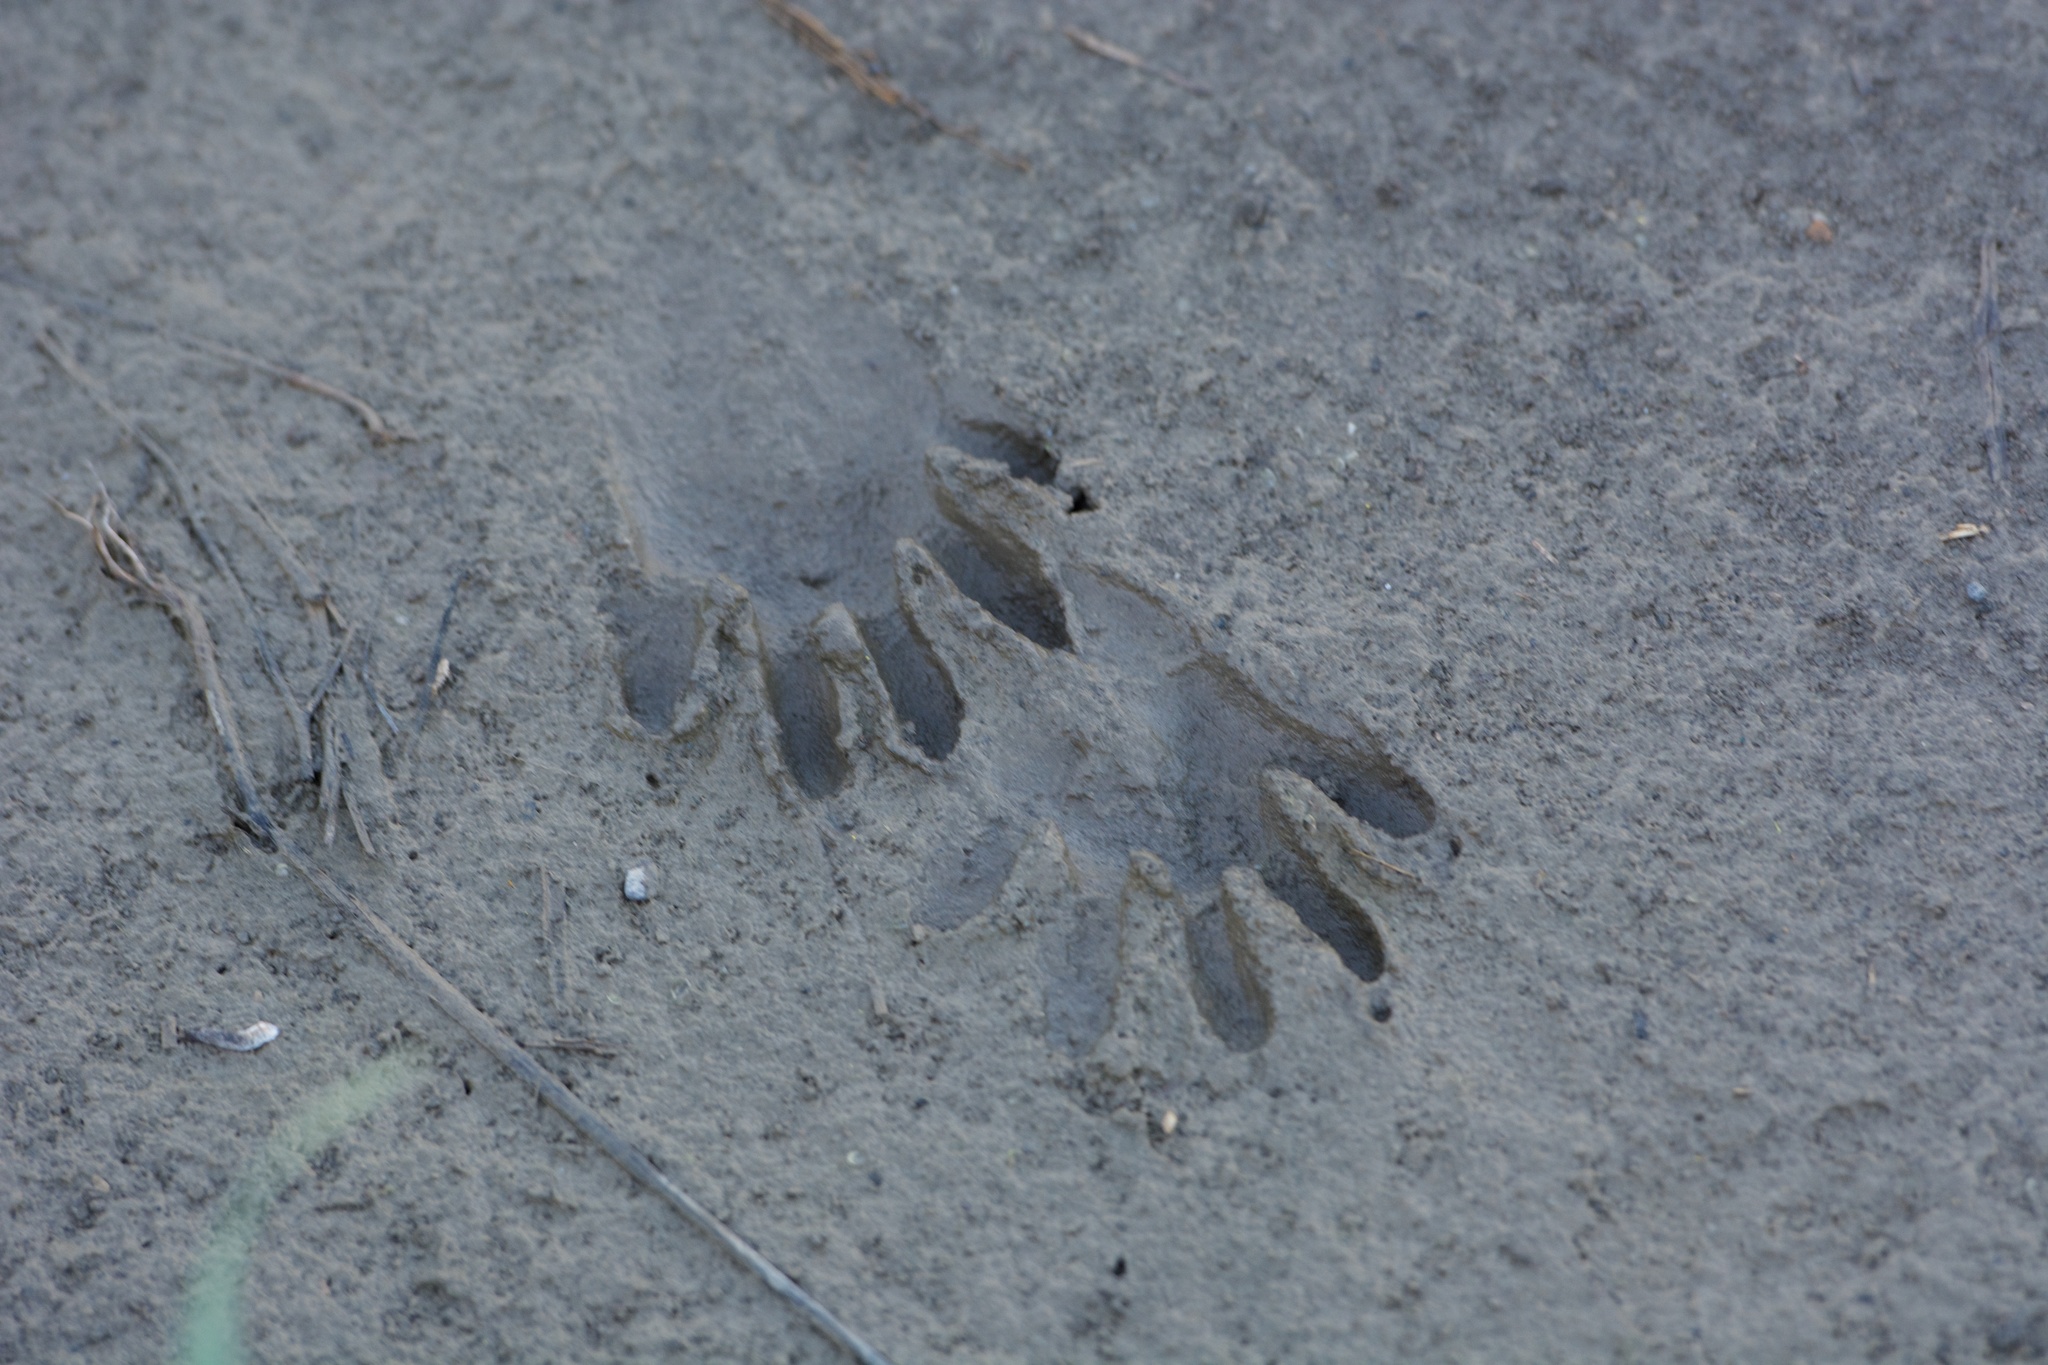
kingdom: Animalia
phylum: Chordata
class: Mammalia
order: Carnivora
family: Procyonidae
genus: Procyon
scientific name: Procyon lotor
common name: Raccoon
